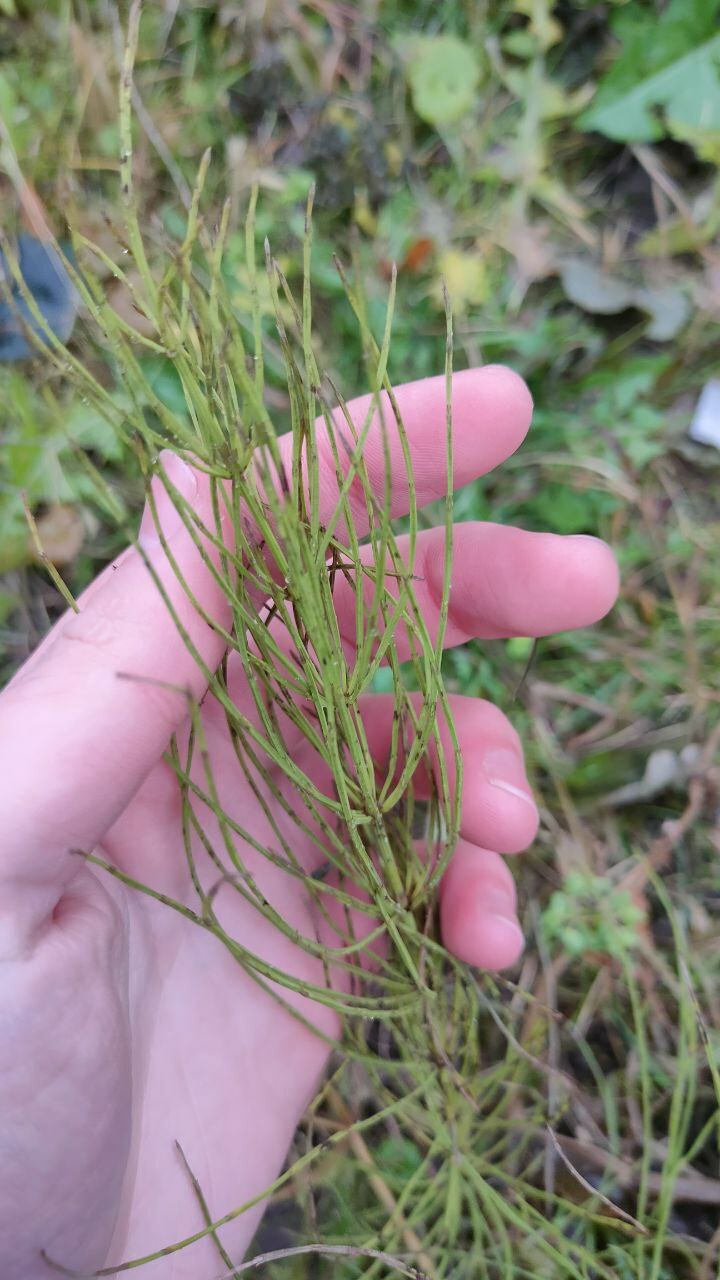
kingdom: Plantae
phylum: Tracheophyta
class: Polypodiopsida
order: Equisetales
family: Equisetaceae
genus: Equisetum
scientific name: Equisetum arvense
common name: Field horsetail
